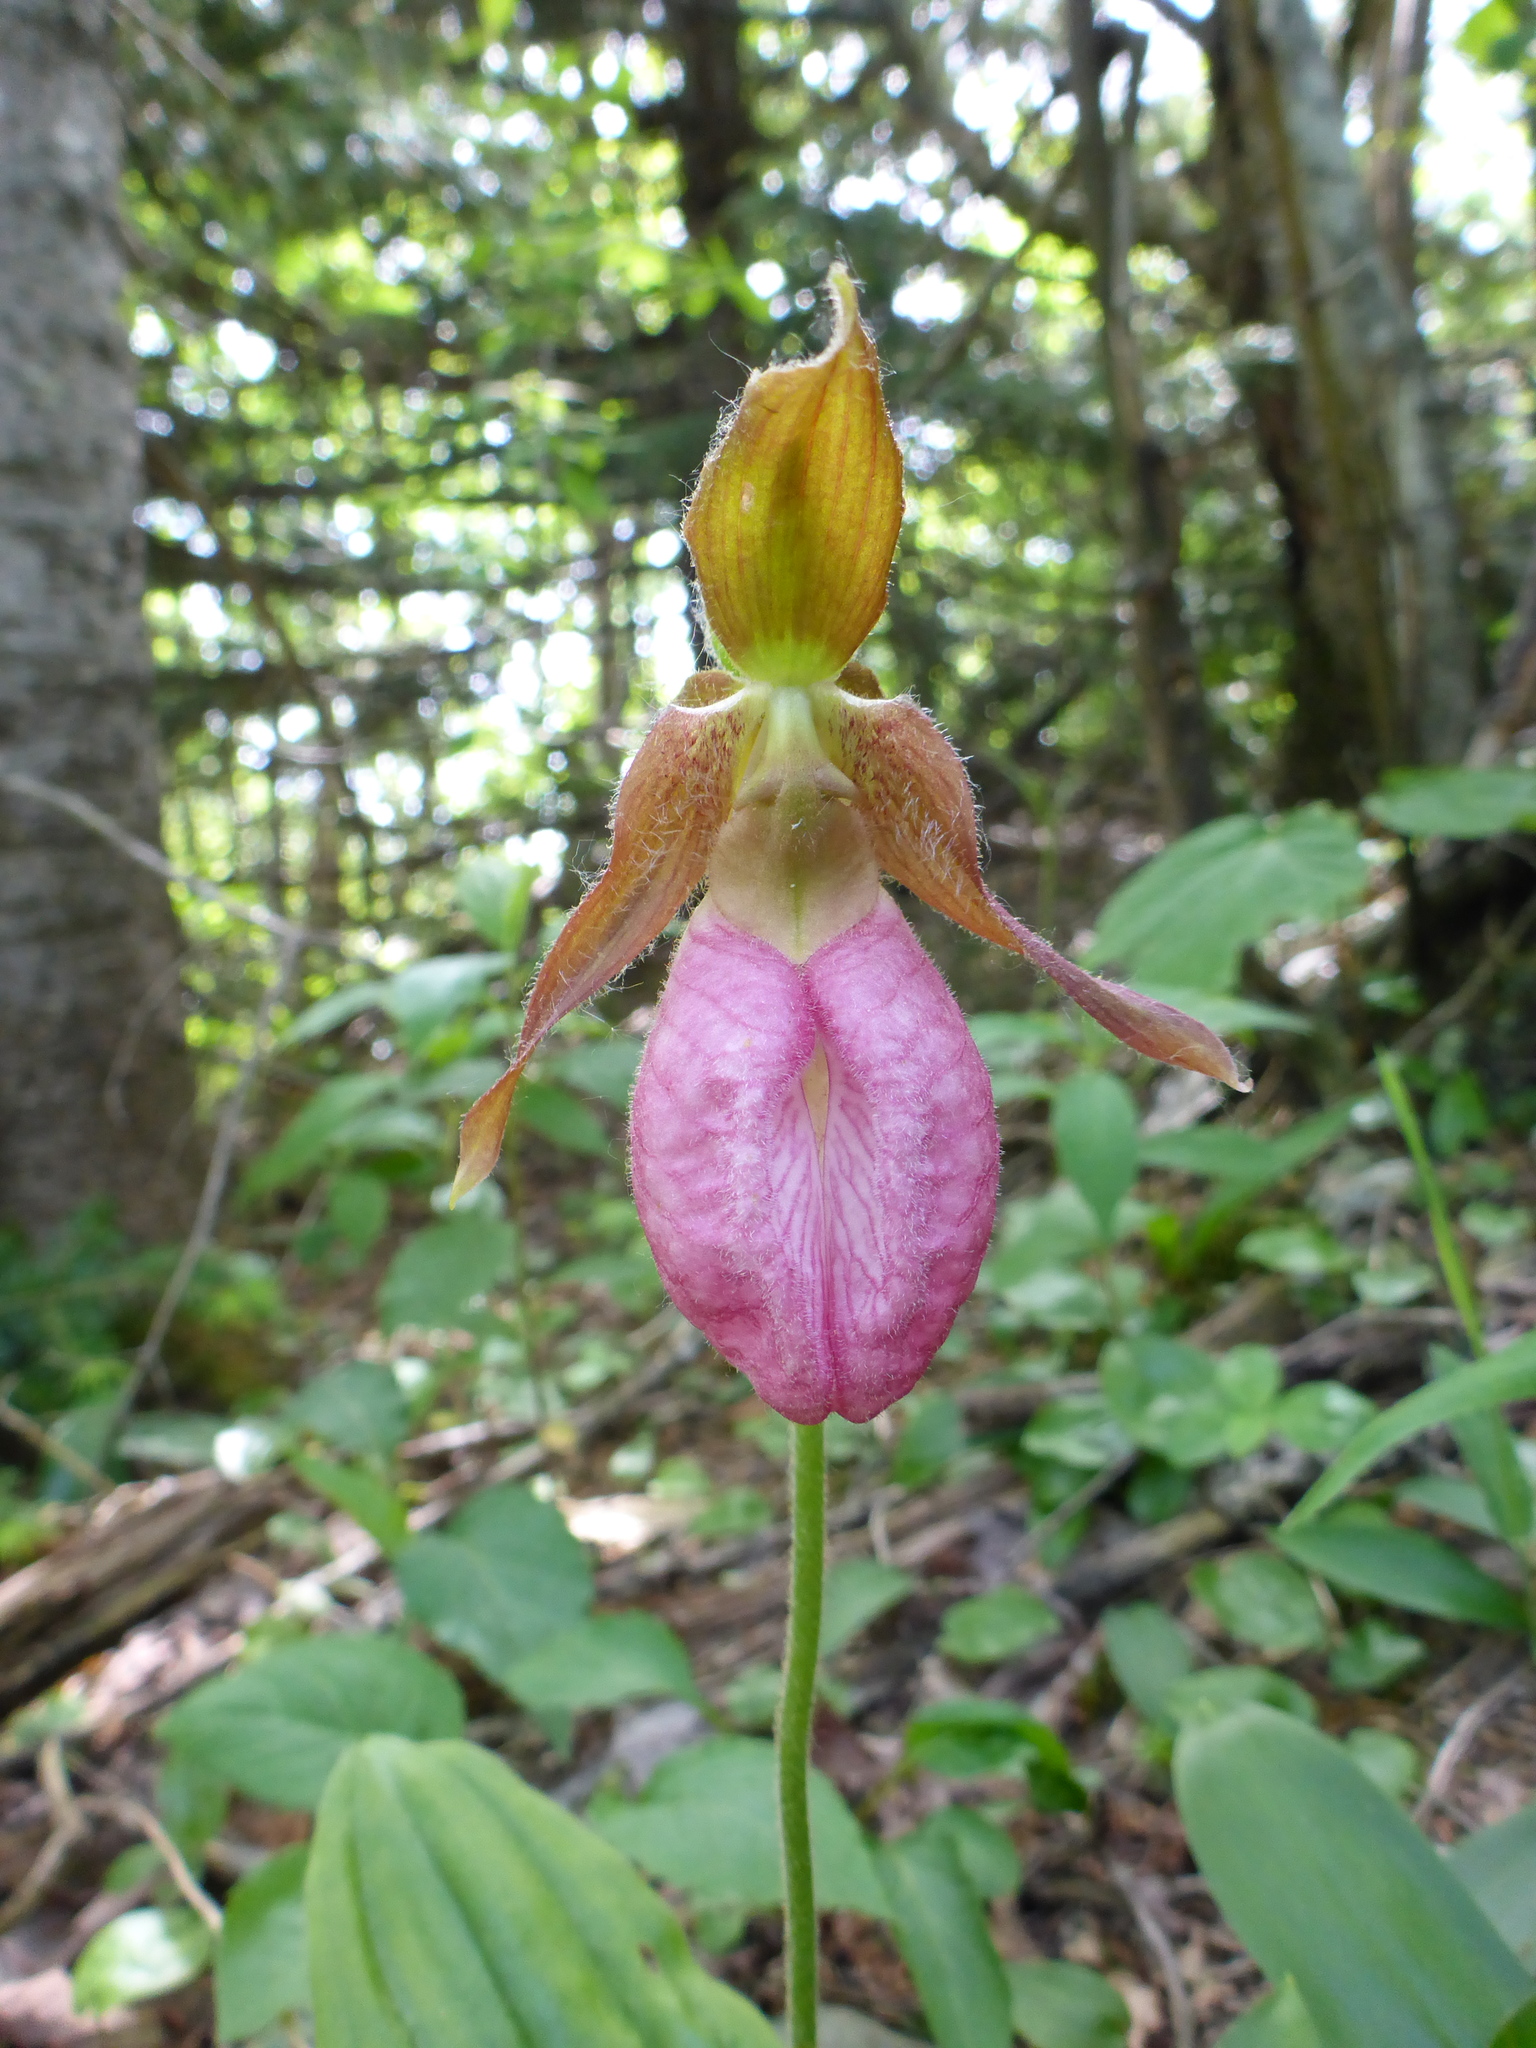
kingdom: Plantae
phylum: Tracheophyta
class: Liliopsida
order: Asparagales
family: Orchidaceae
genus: Cypripedium
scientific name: Cypripedium acaule
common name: Pink lady's-slipper
